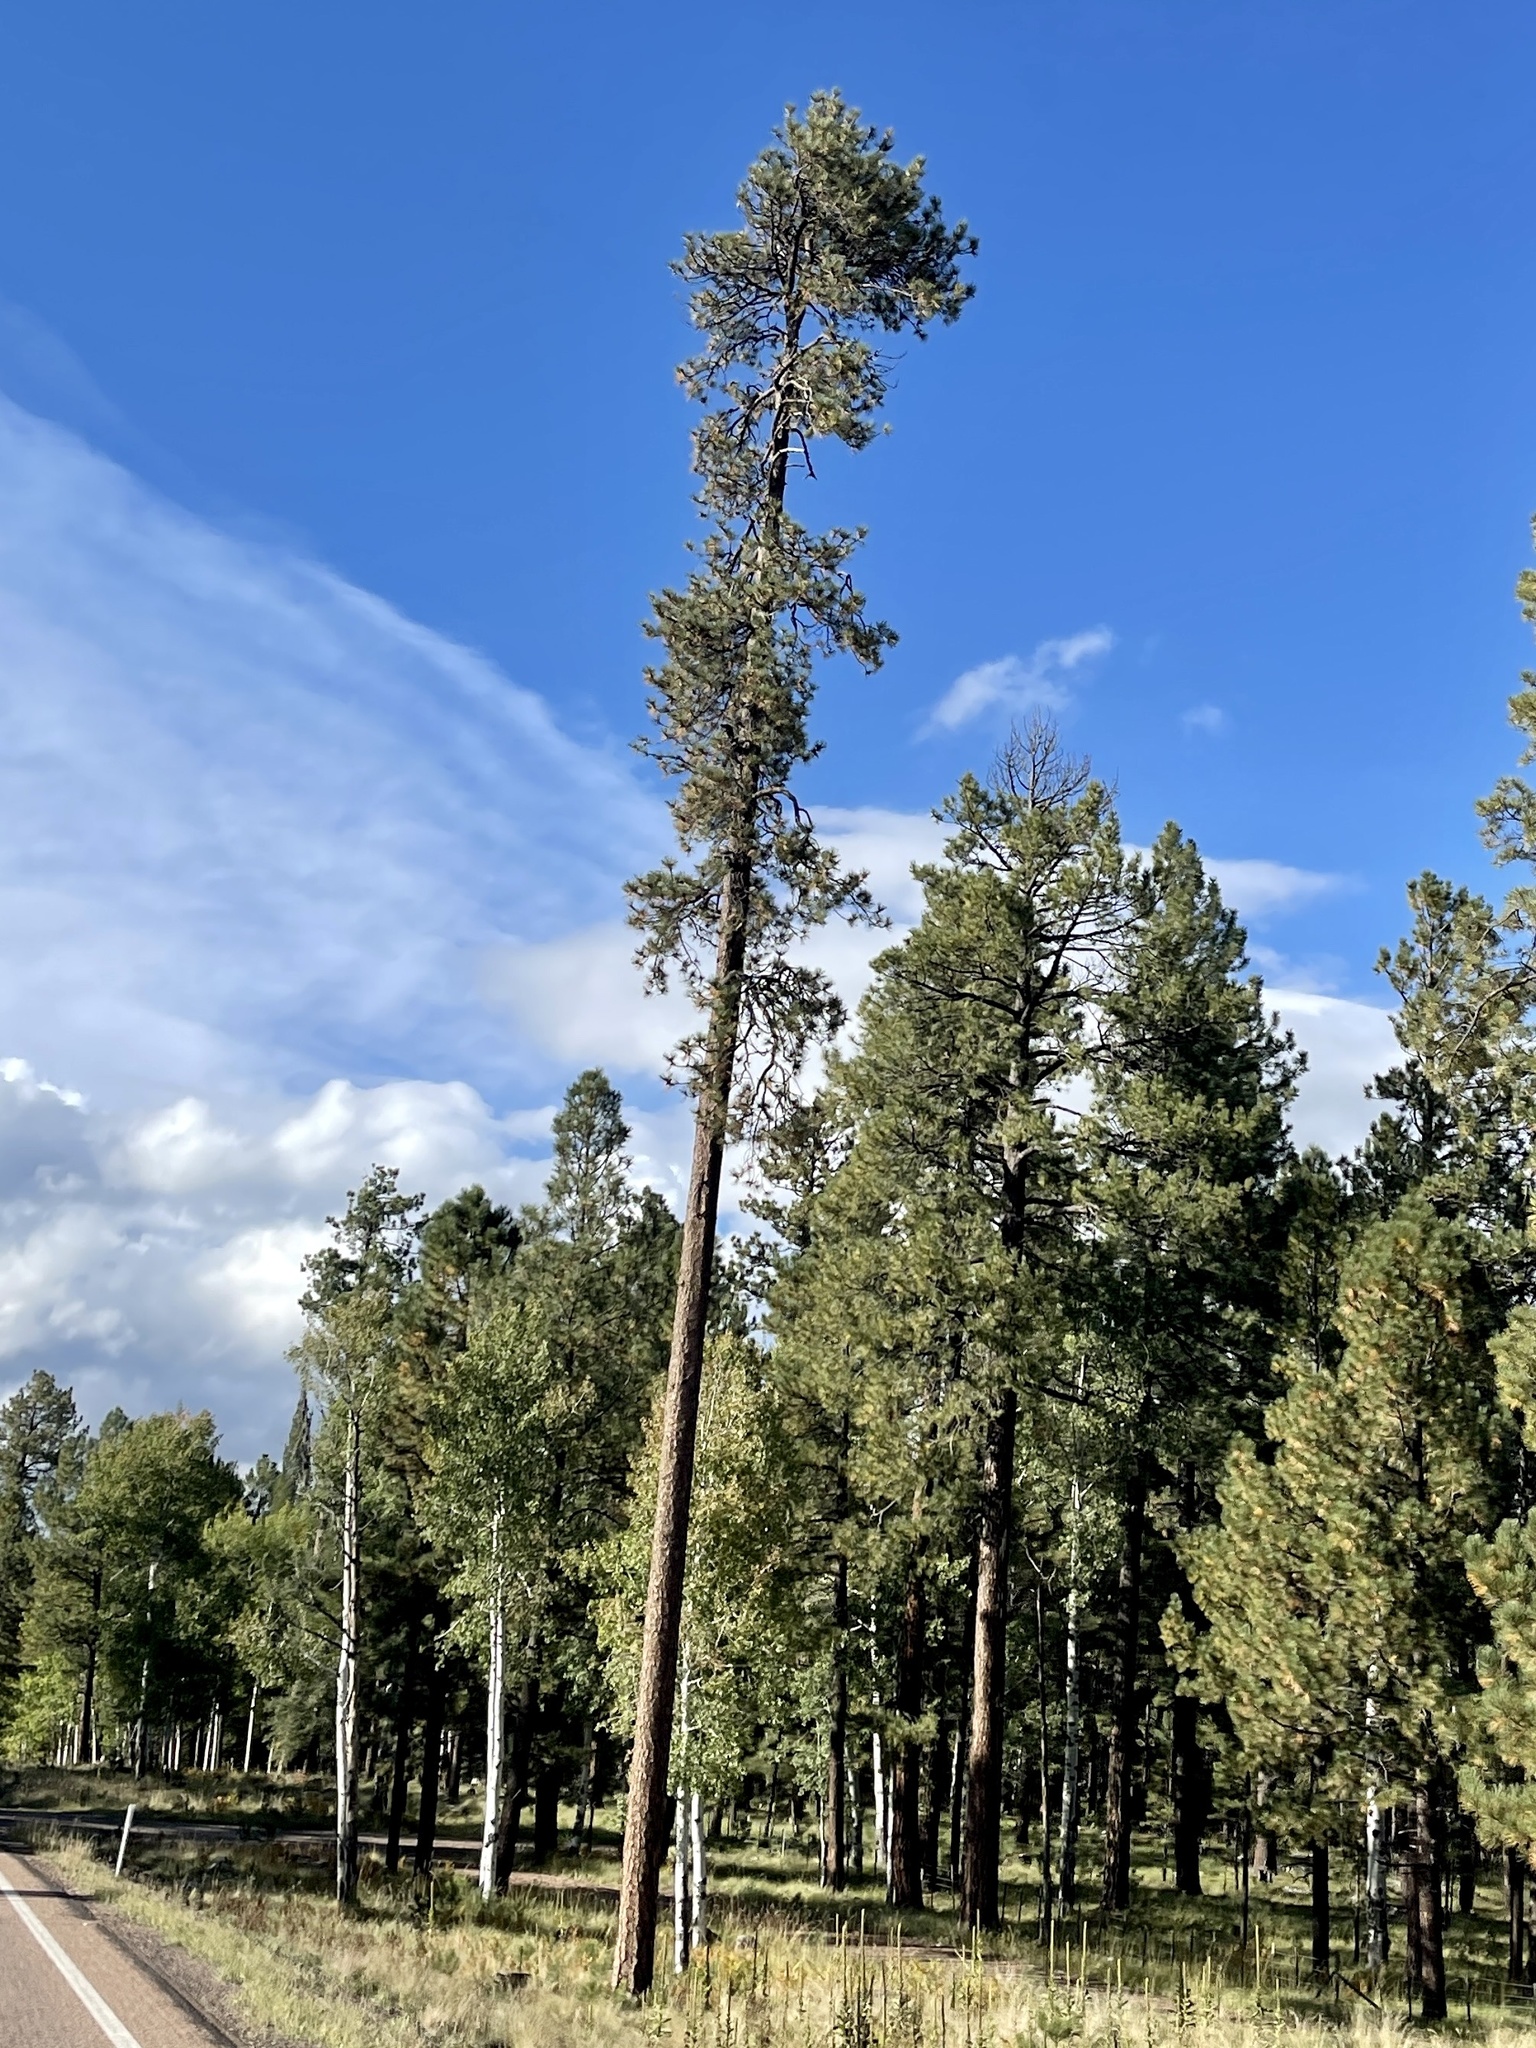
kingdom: Plantae
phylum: Tracheophyta
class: Pinopsida
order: Pinales
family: Pinaceae
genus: Pinus
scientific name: Pinus ponderosa
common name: Western yellow-pine
